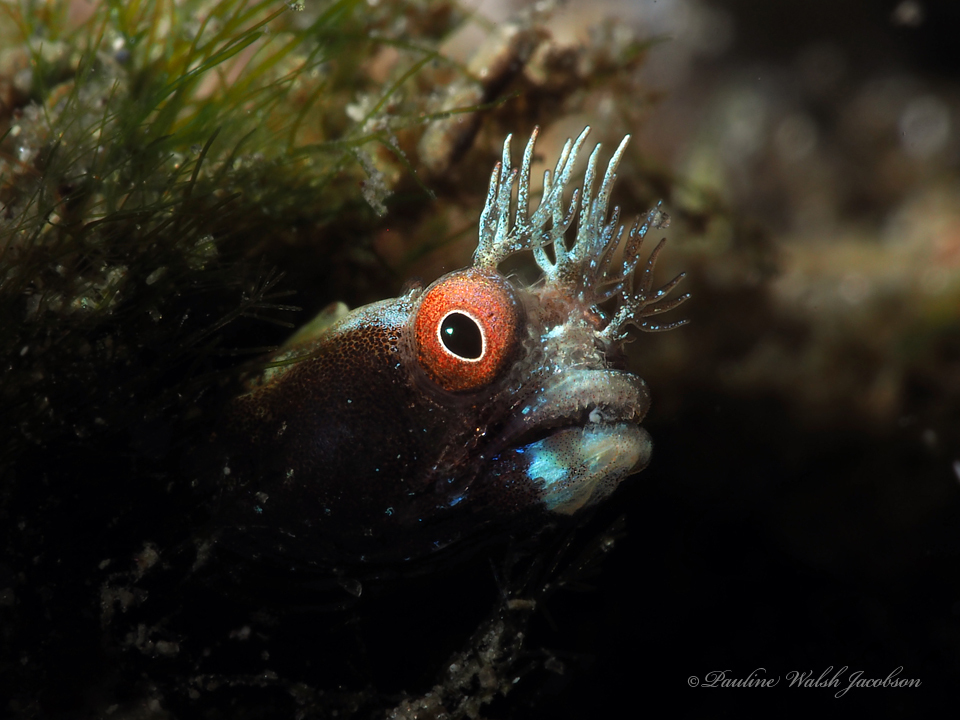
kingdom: Animalia
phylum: Chordata
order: Perciformes
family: Chaenopsidae
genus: Acanthemblemaria
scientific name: Acanthemblemaria aspera
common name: Roughhead blenny
